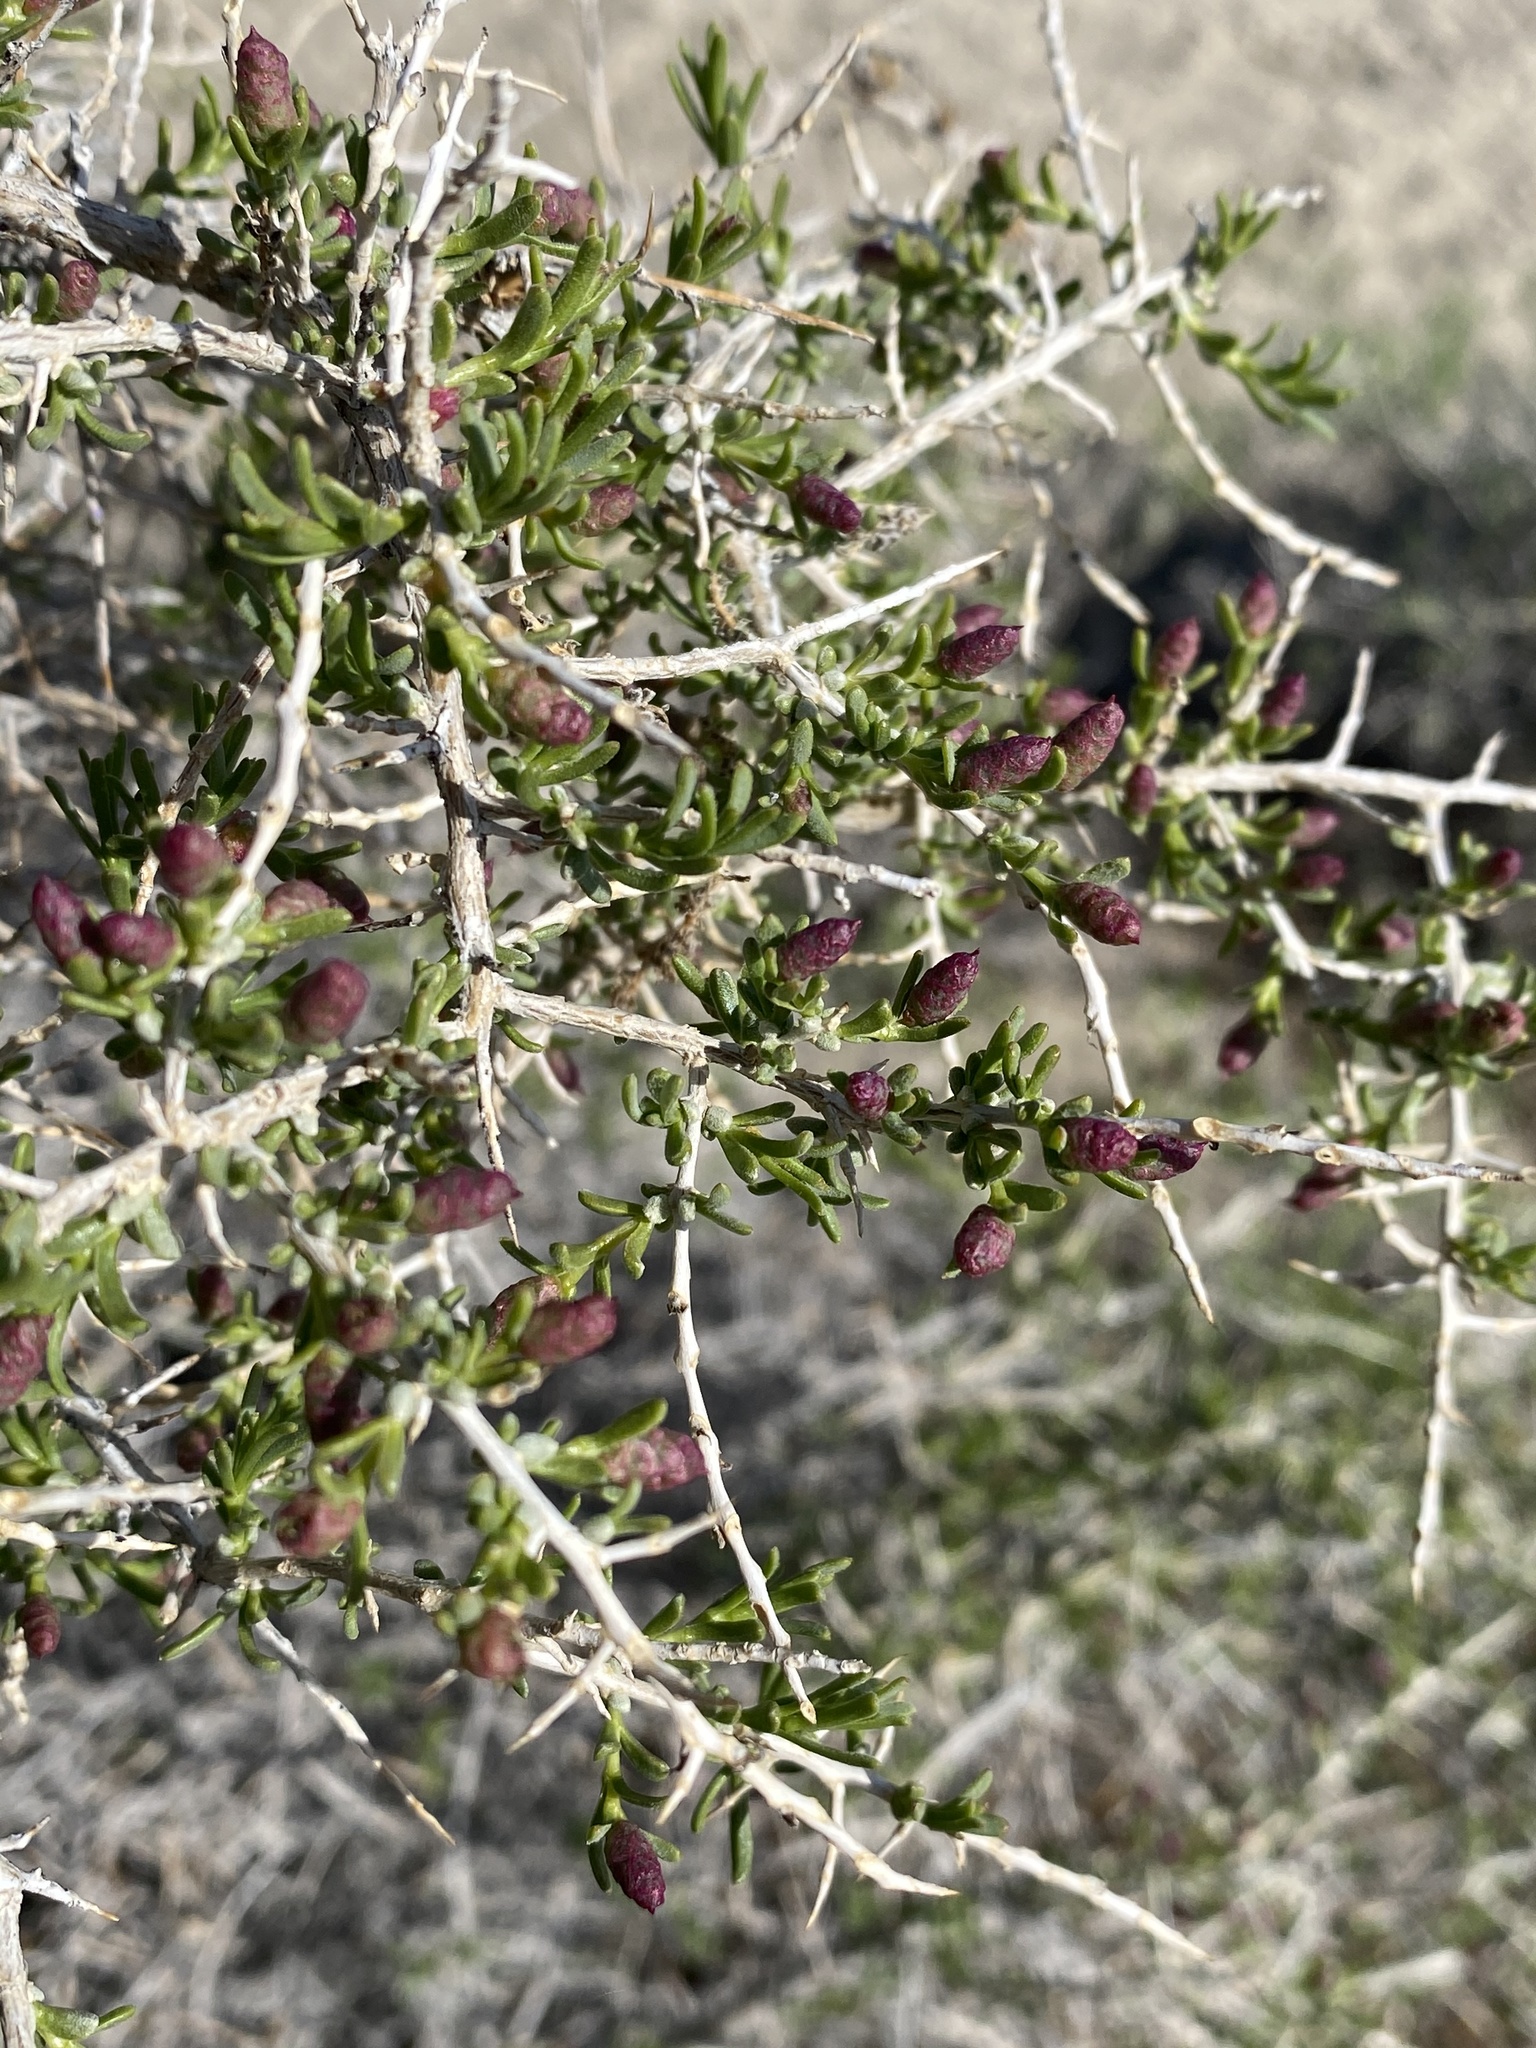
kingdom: Plantae
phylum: Tracheophyta
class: Magnoliopsida
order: Caryophyllales
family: Sarcobataceae
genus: Sarcobatus
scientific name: Sarcobatus vermiculatus
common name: Greasewood
